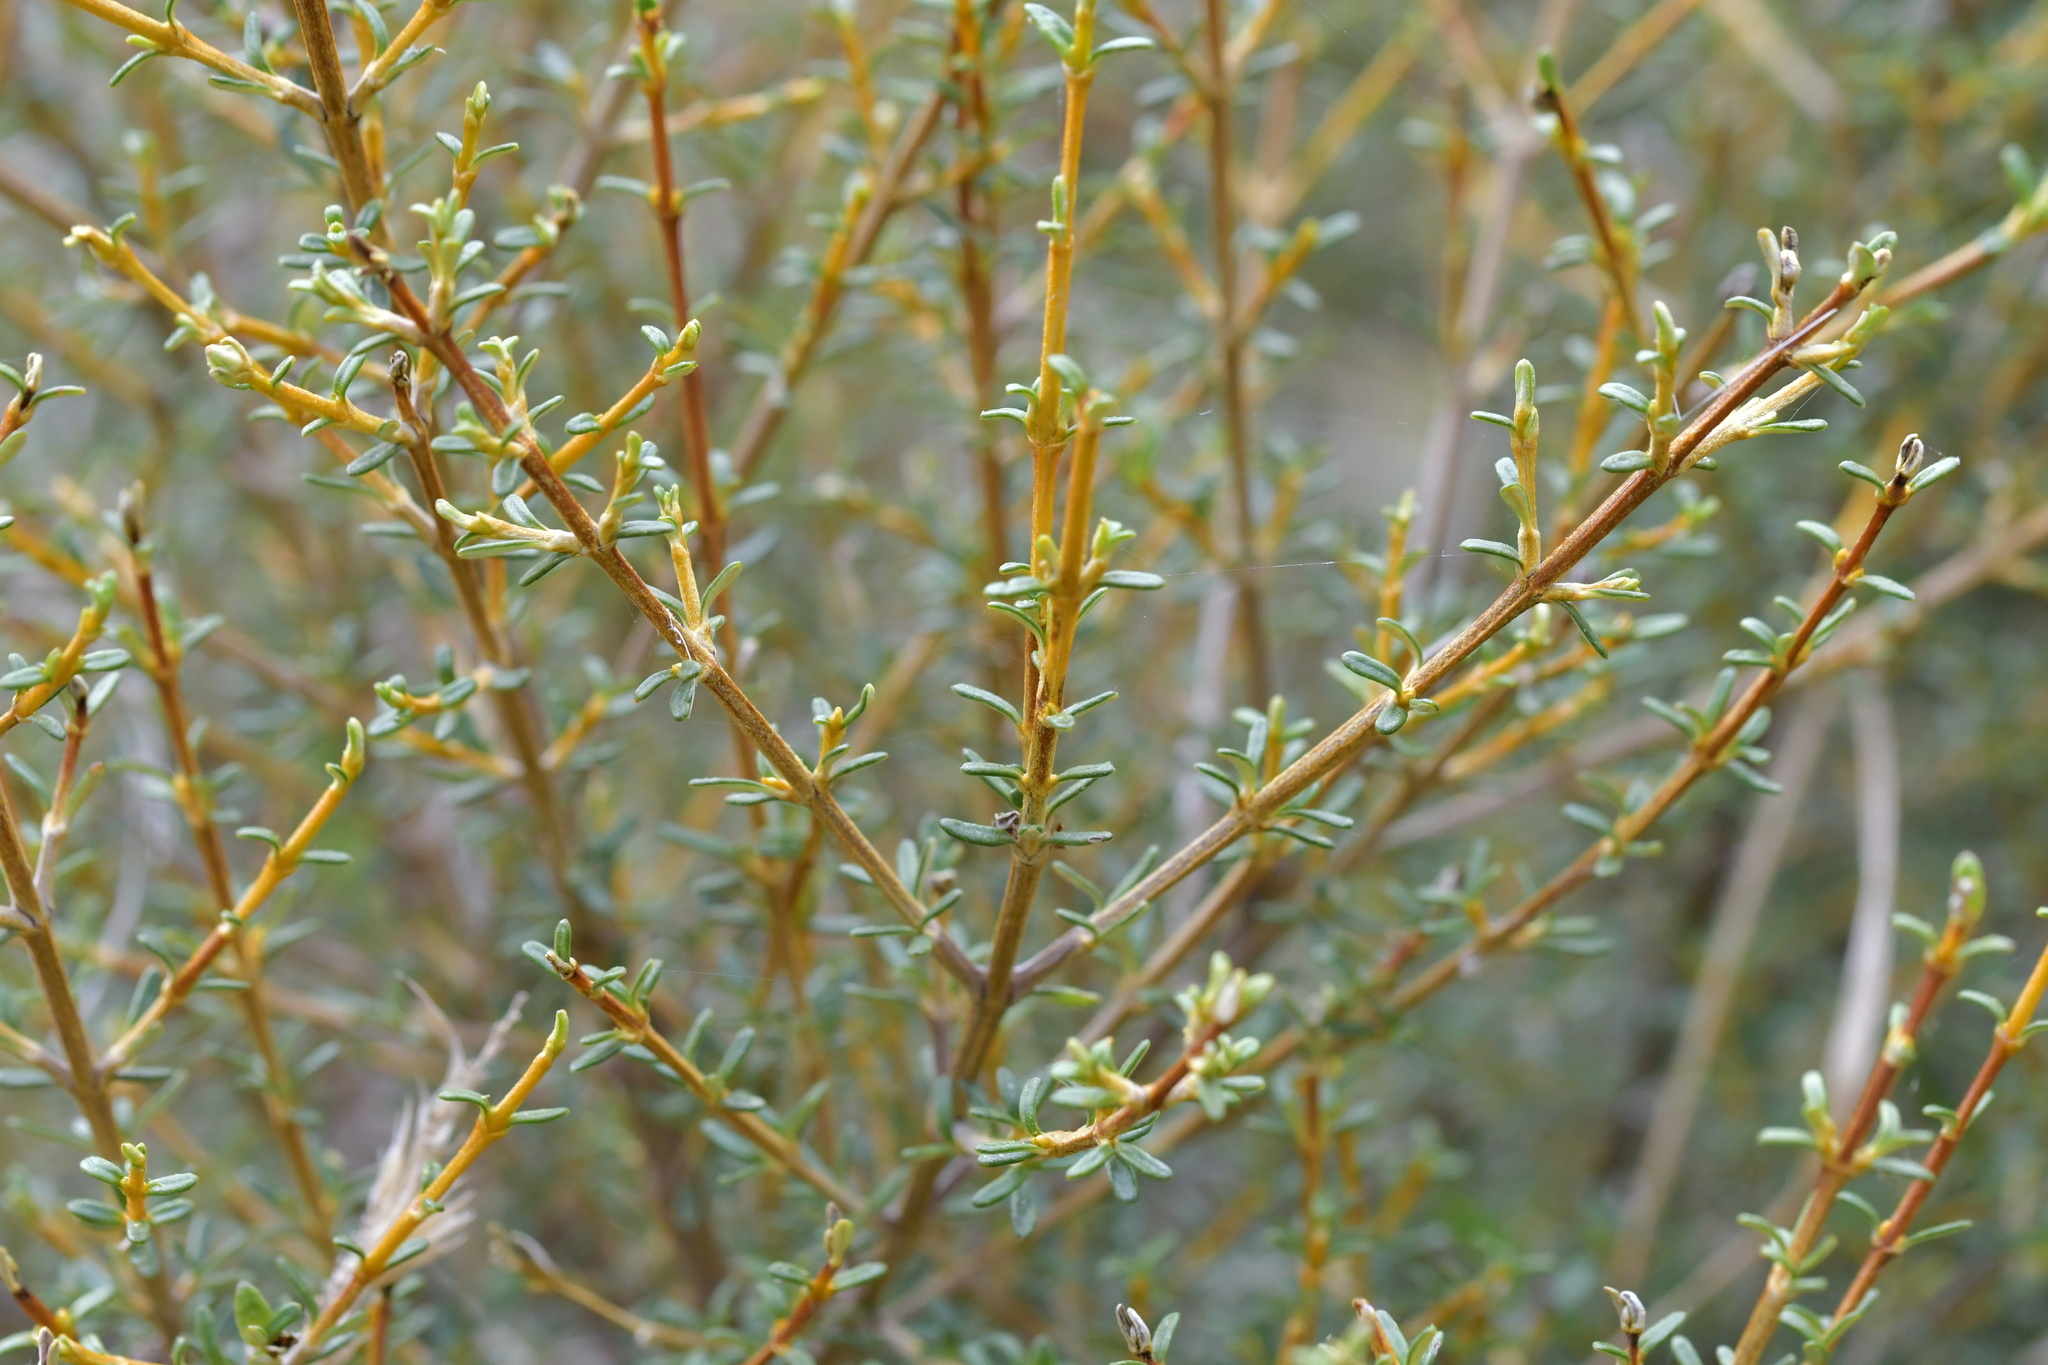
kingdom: Plantae
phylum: Tracheophyta
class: Magnoliopsida
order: Asterales
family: Asteraceae
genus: Olearia
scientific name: Olearia solandri
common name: Coastal daisybush
